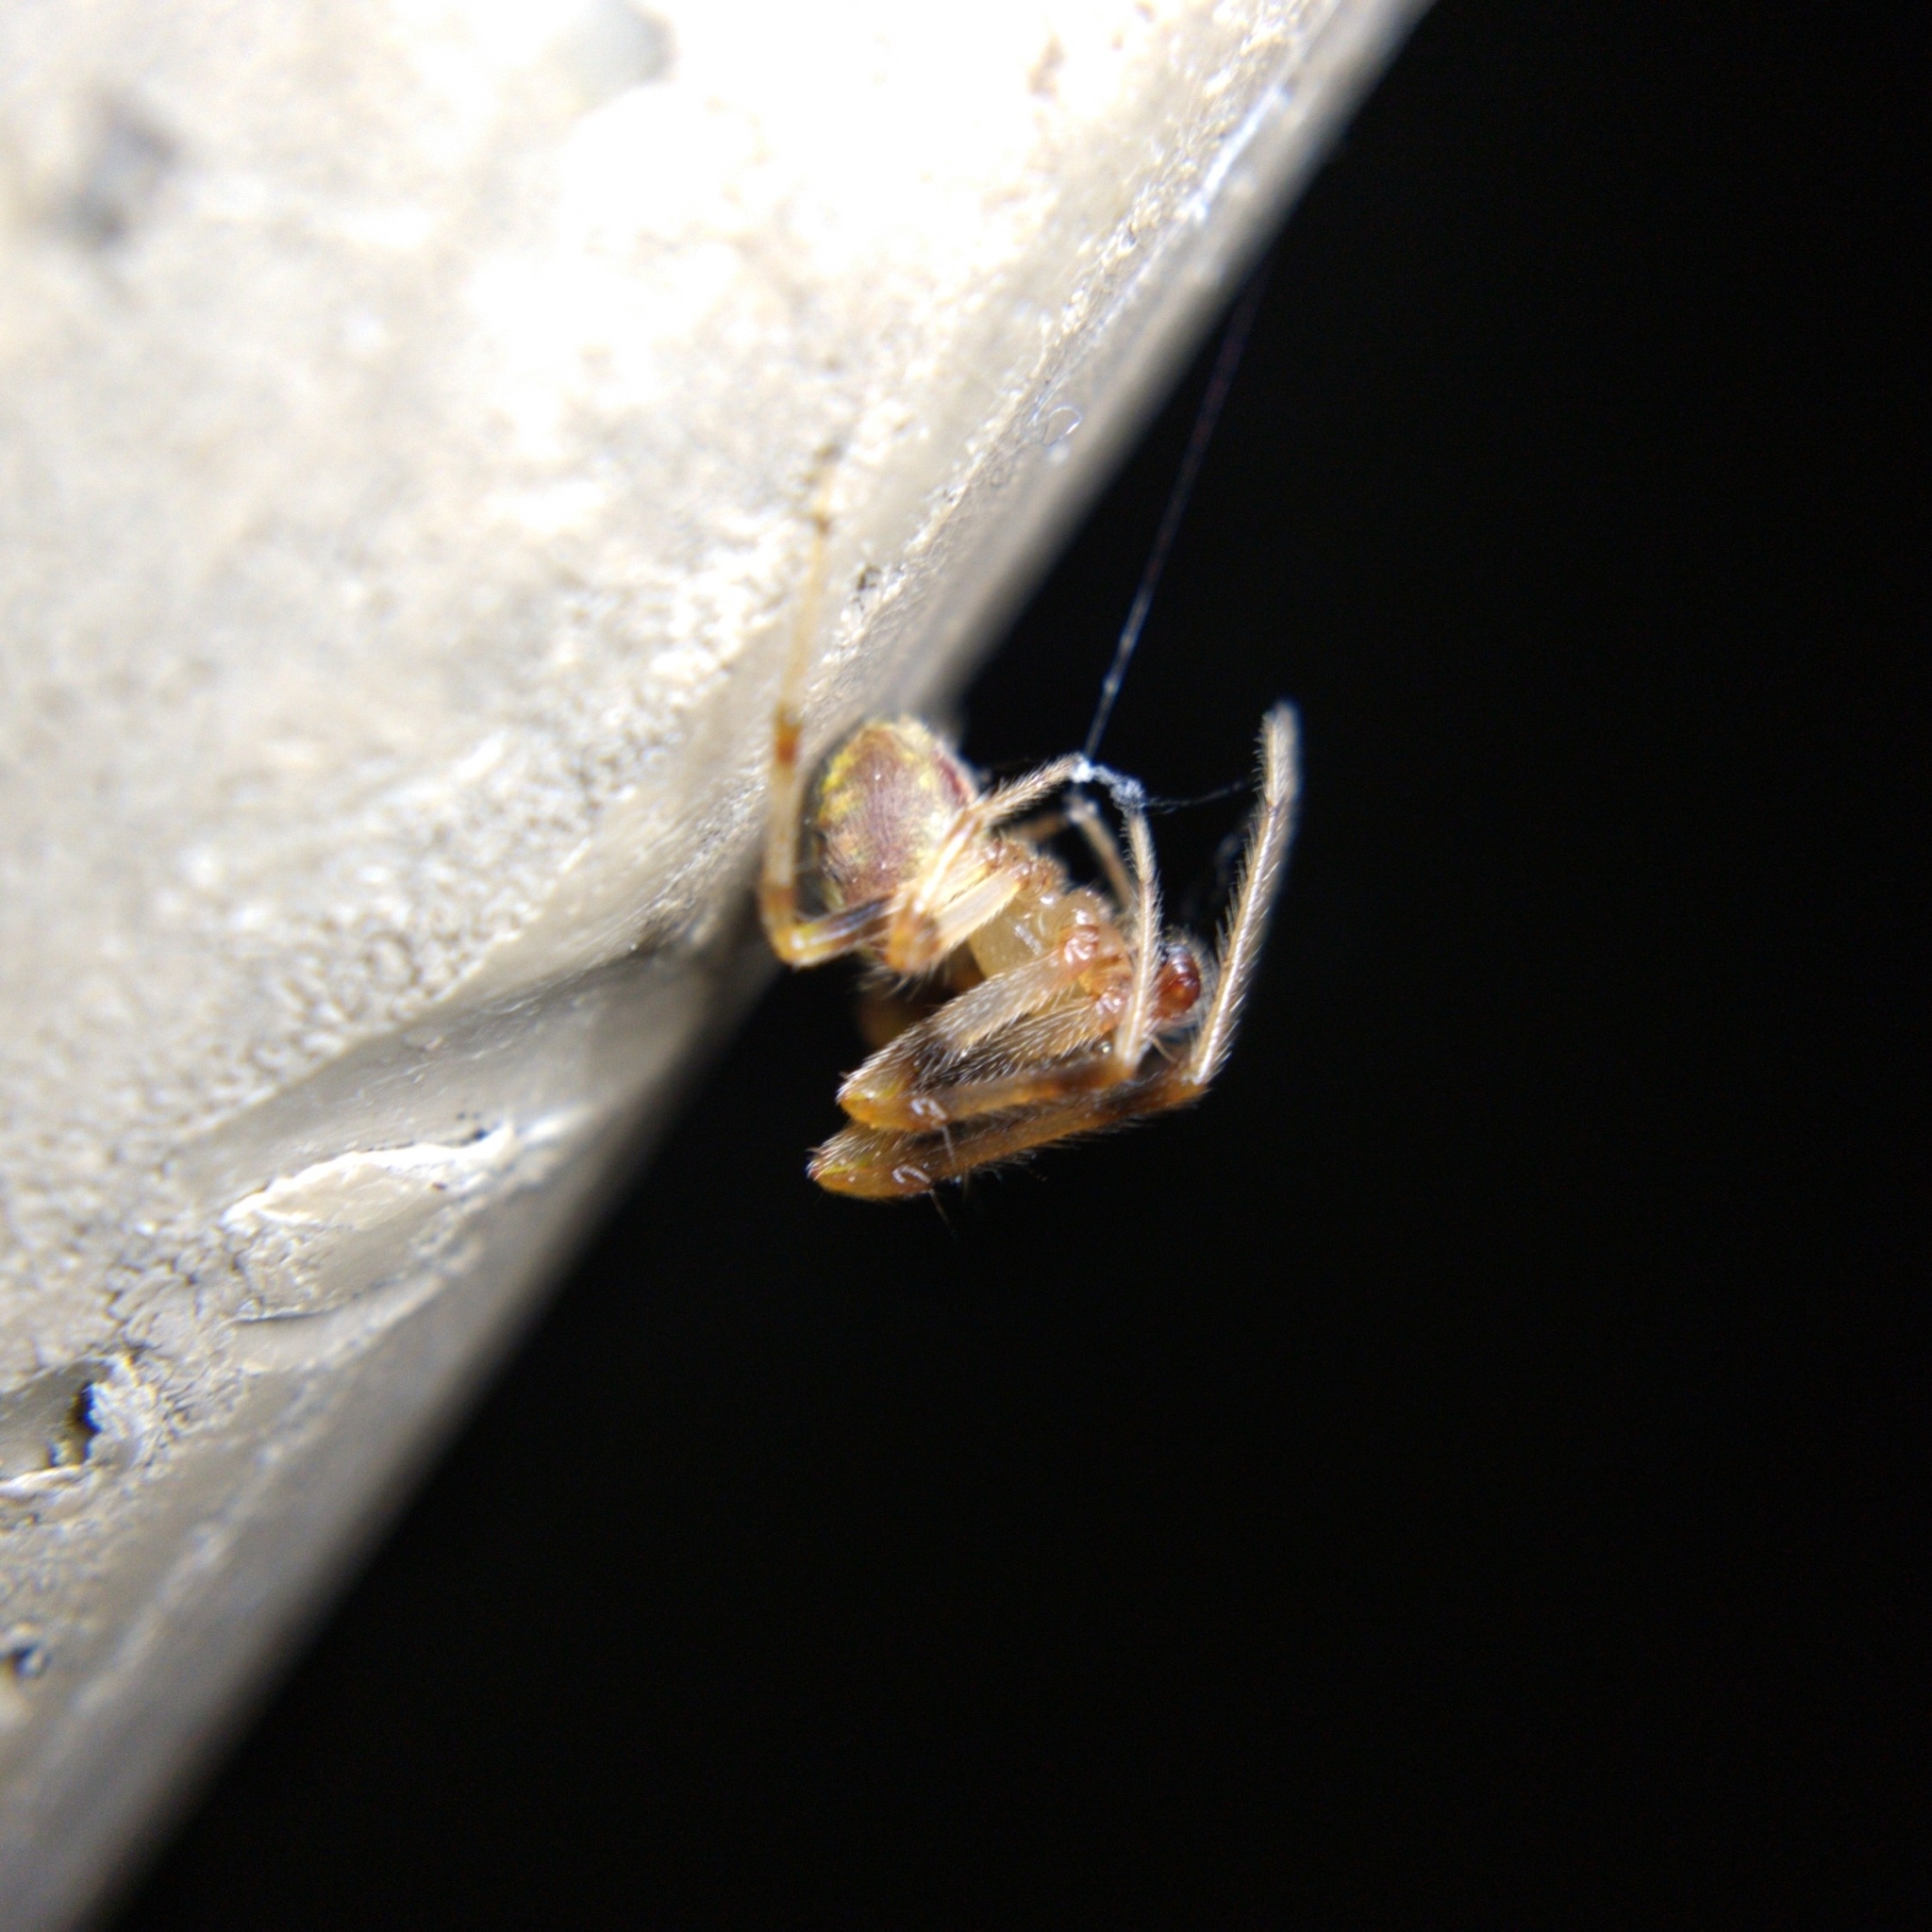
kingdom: Animalia
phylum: Arthropoda
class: Arachnida
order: Araneae
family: Araneidae
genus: Araneus
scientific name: Araneus thaddeus
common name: Lattice orbweaver
